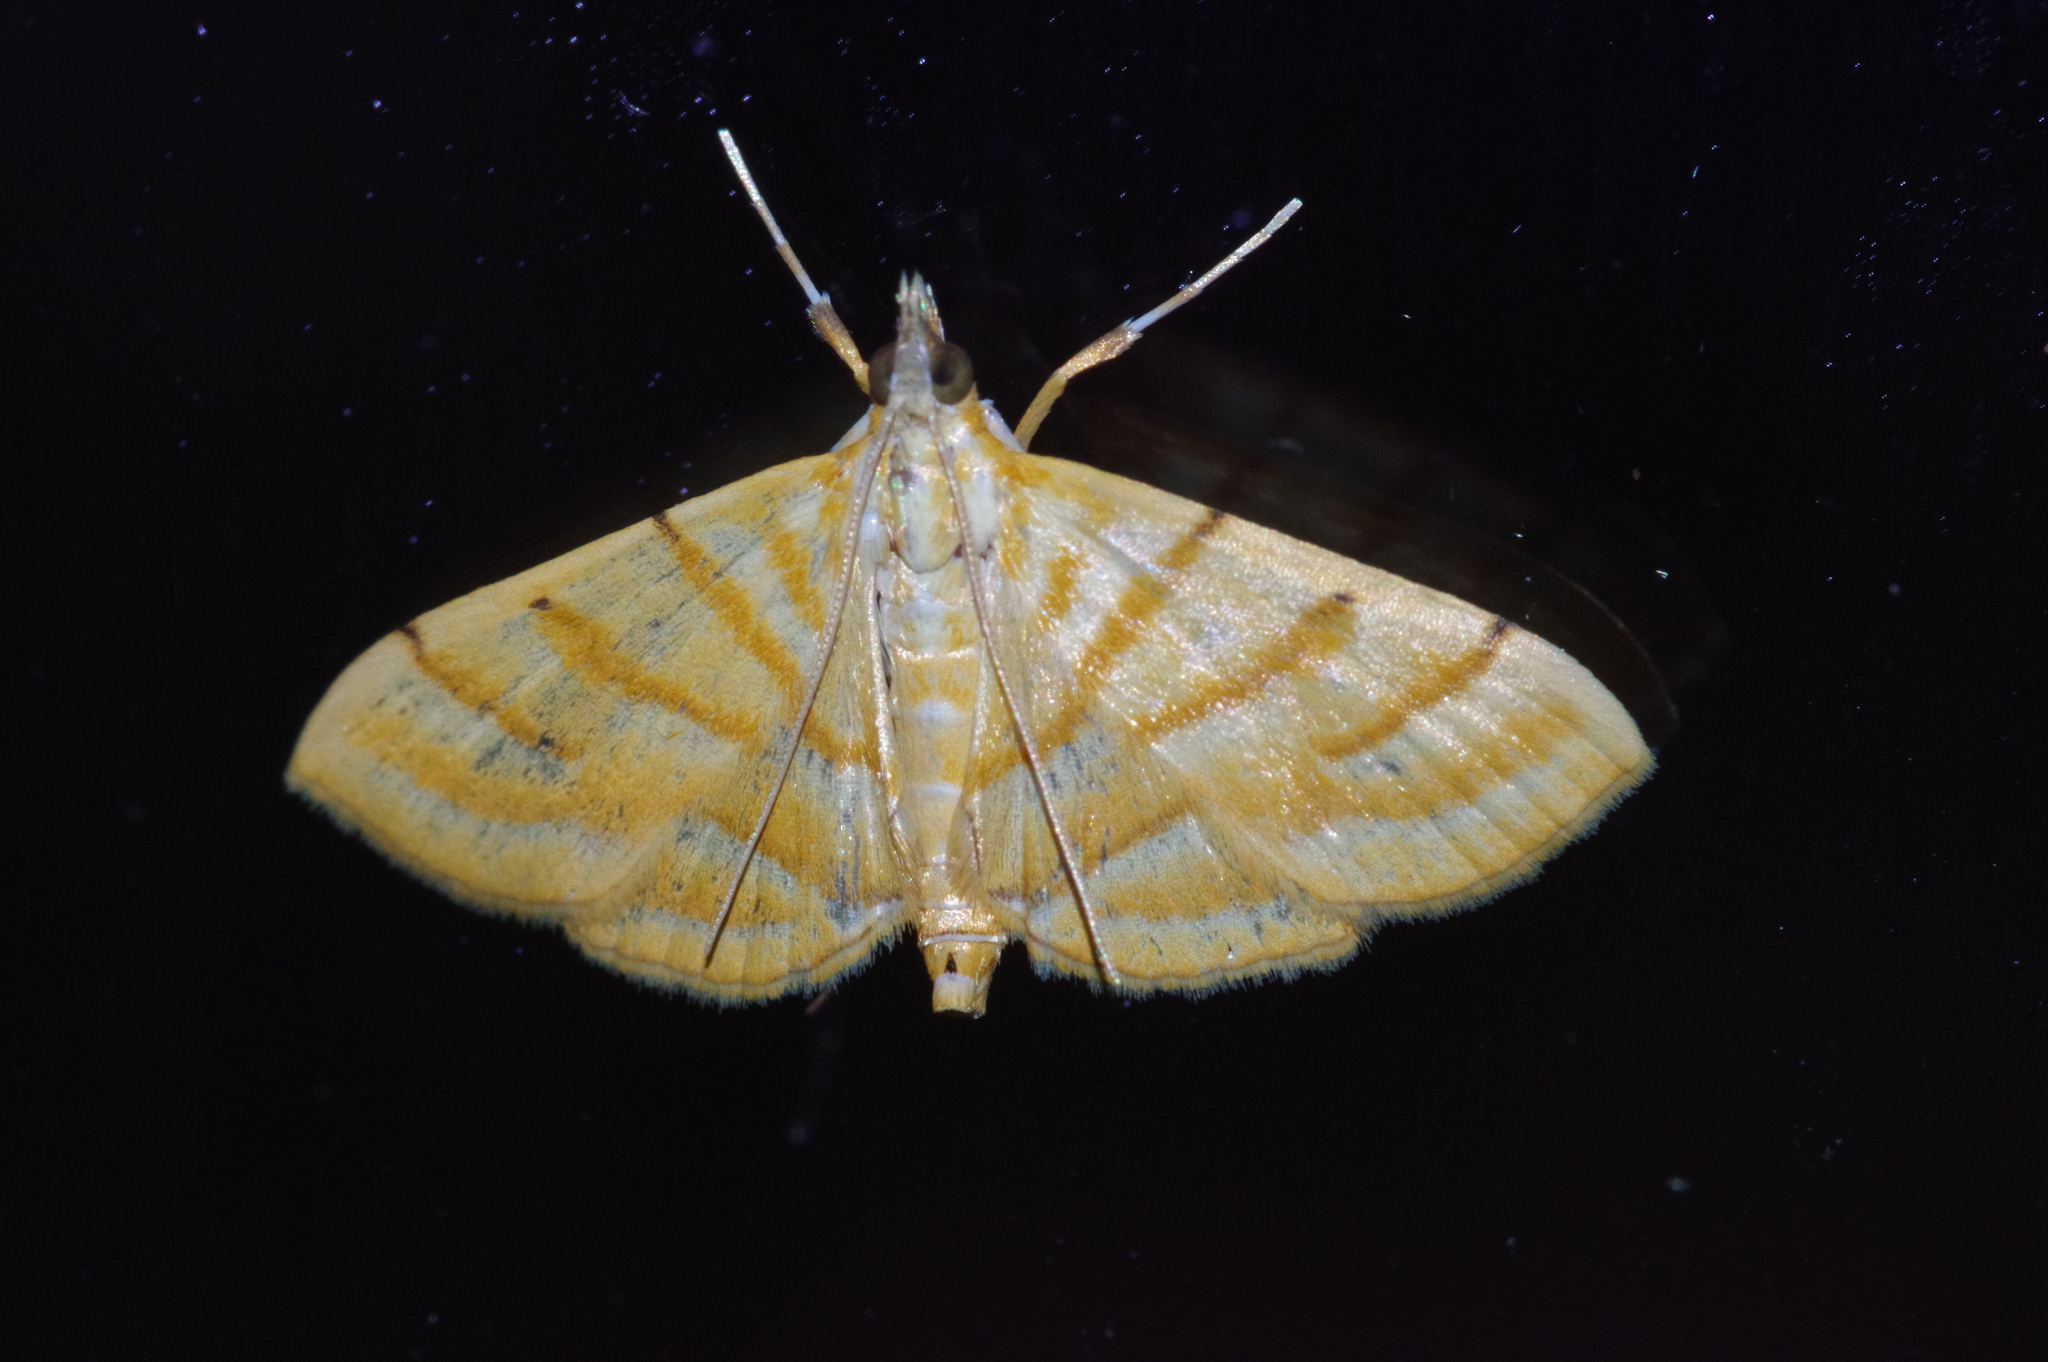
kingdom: Animalia
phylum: Arthropoda
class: Insecta
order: Lepidoptera
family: Crambidae
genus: Pagyda
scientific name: Pagyda quinquelineata
